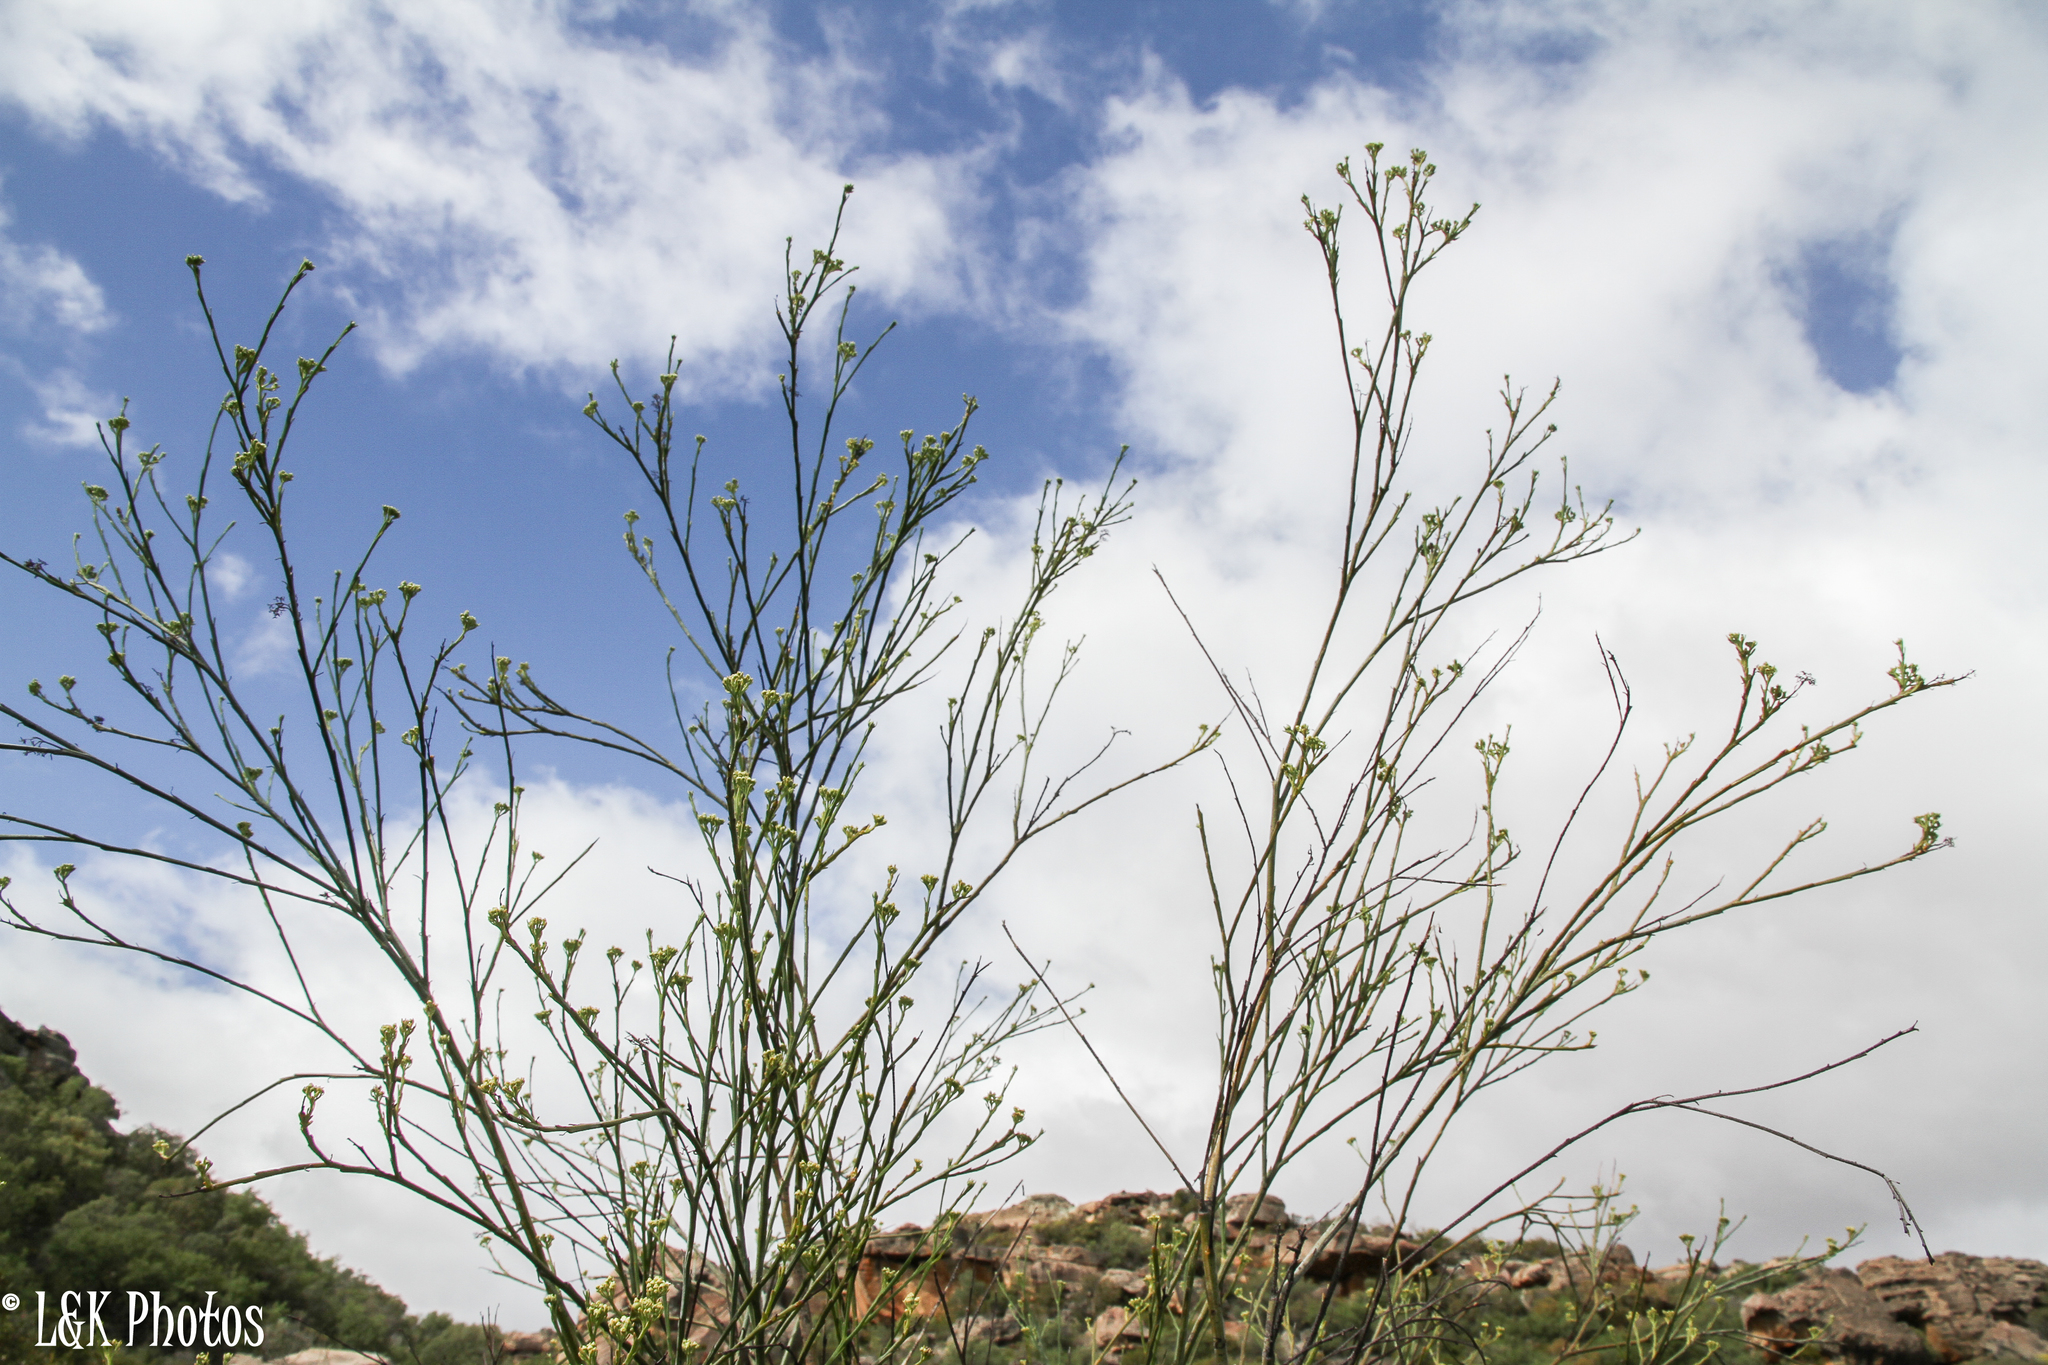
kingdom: Plantae
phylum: Tracheophyta
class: Magnoliopsida
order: Santalales
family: Thesiaceae
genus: Thesium
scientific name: Thesium strictum
